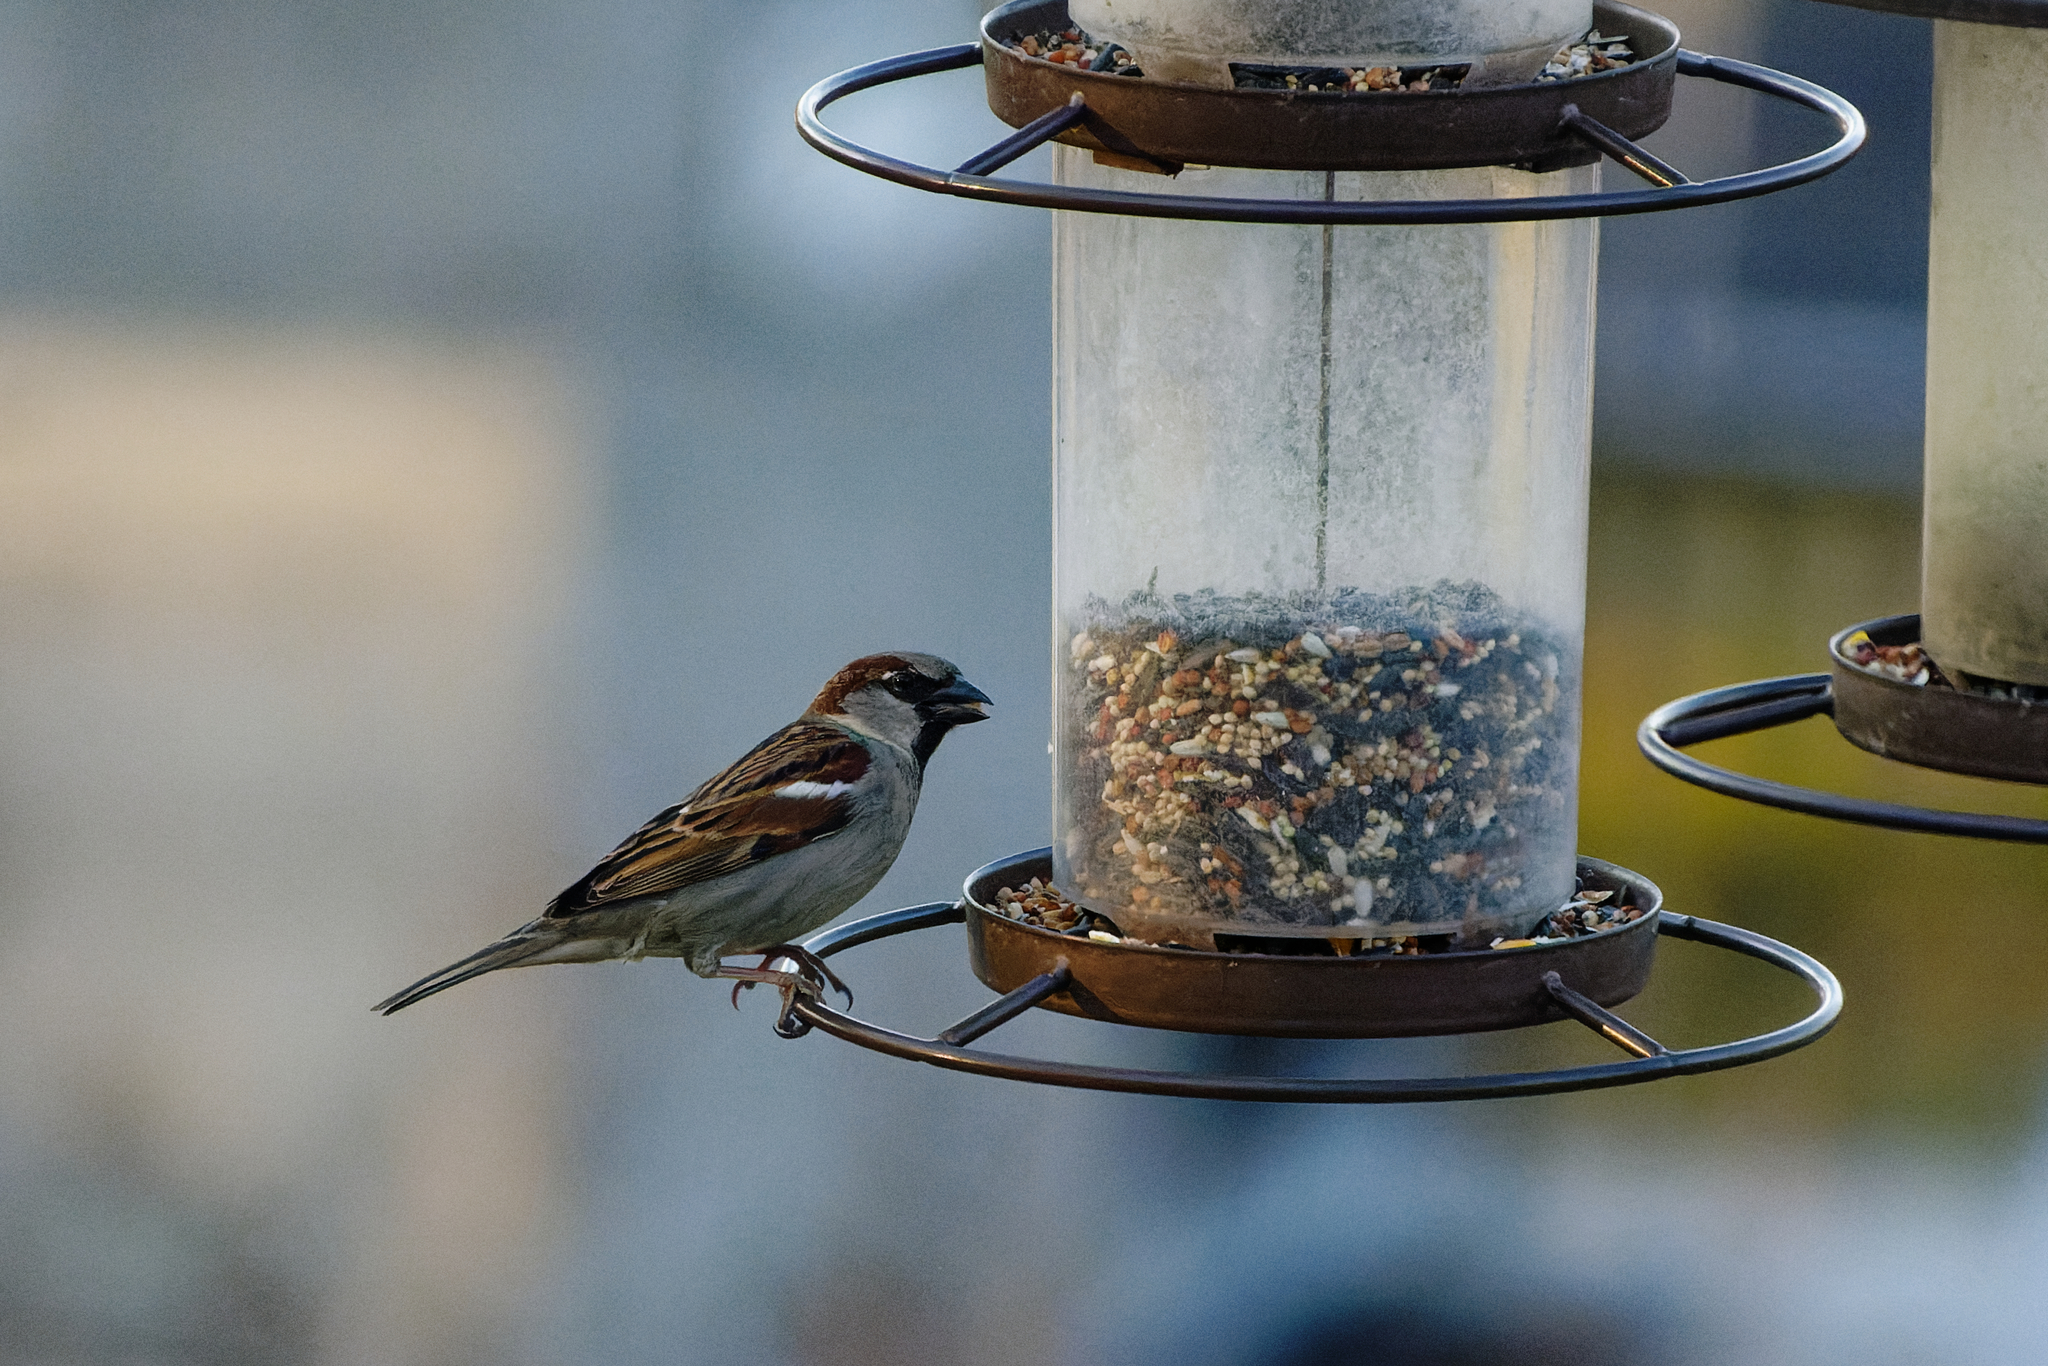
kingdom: Animalia
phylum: Chordata
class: Aves
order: Passeriformes
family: Passeridae
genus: Passer
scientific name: Passer domesticus
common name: House sparrow
